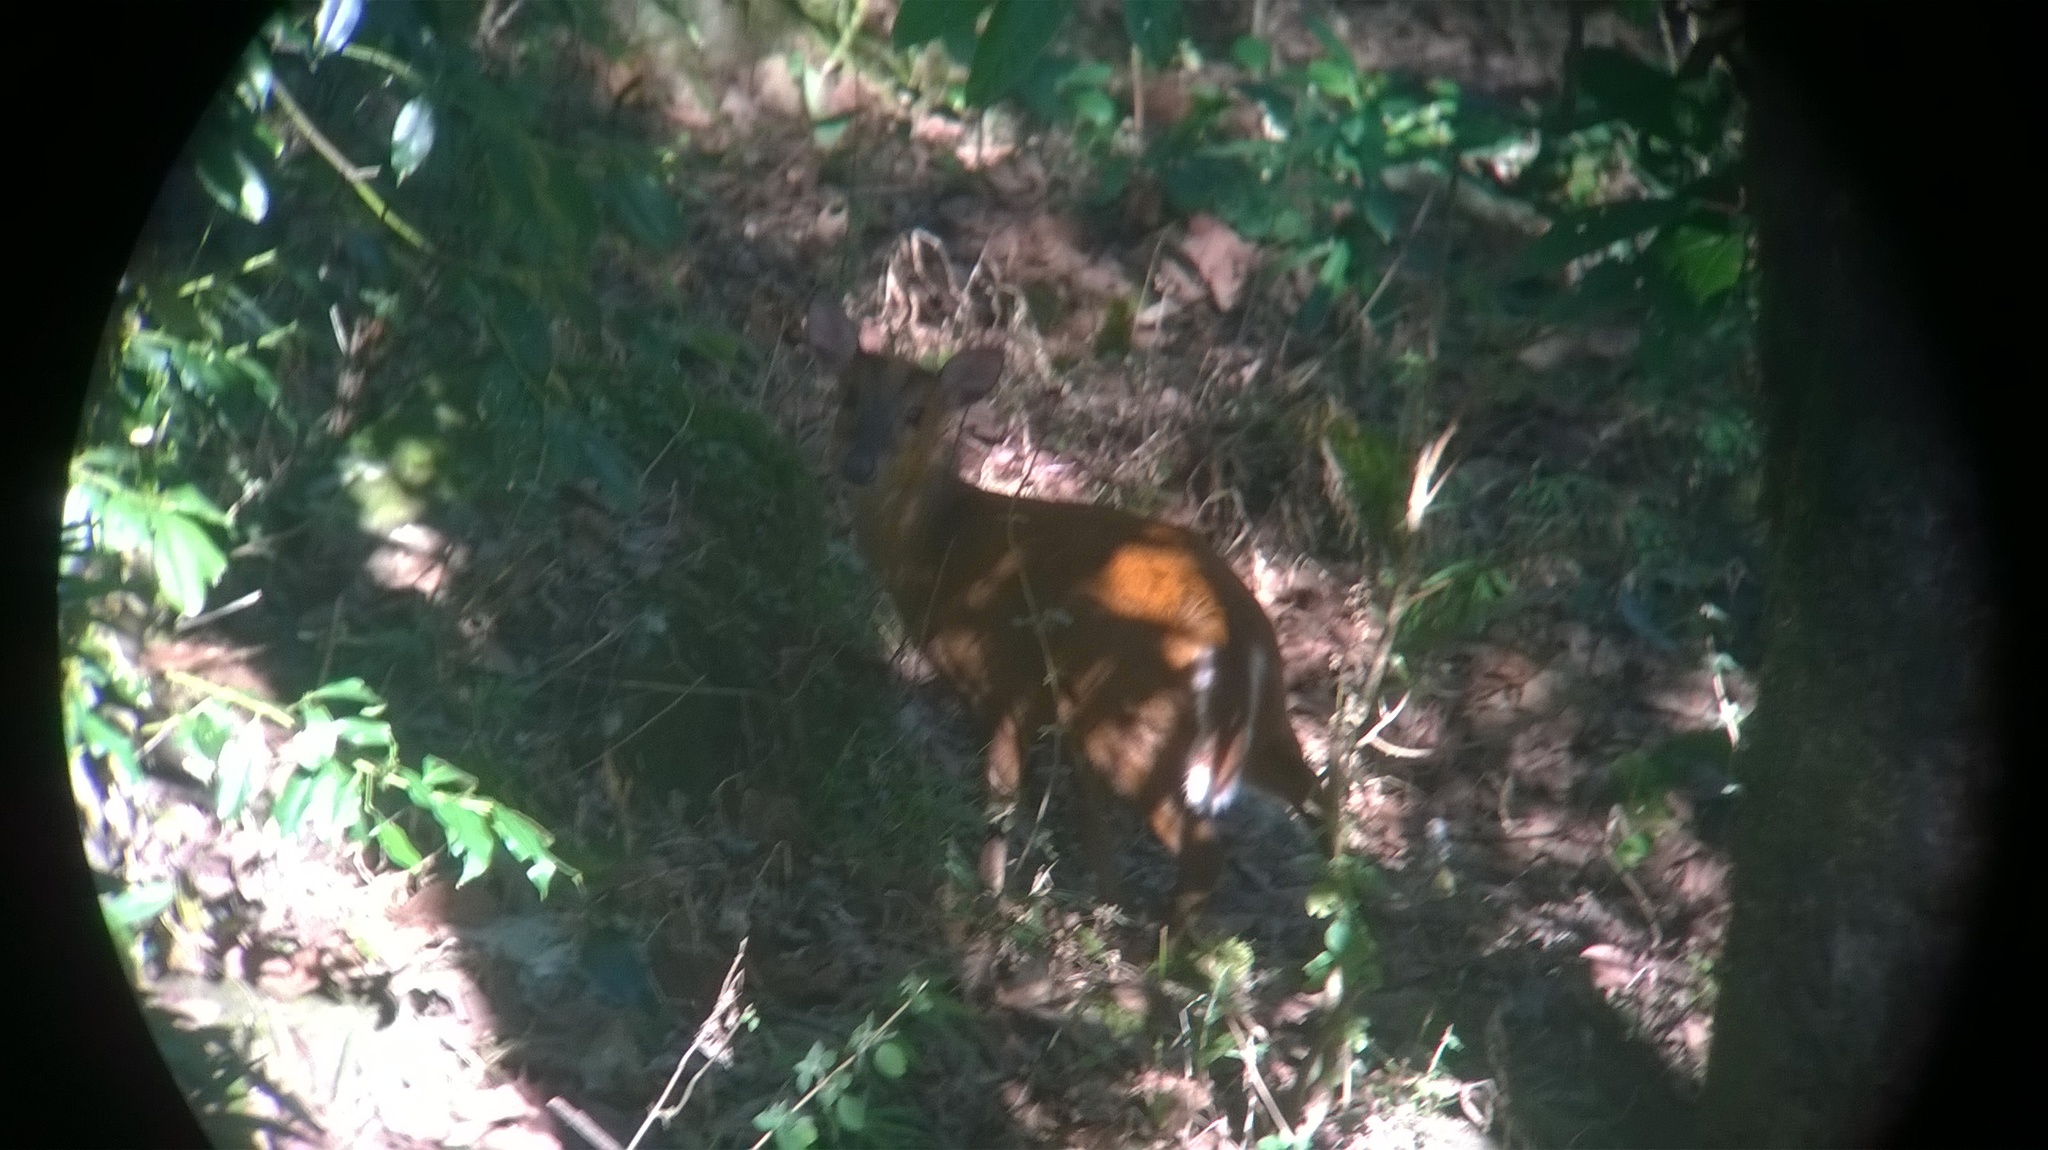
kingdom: Animalia
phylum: Chordata
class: Mammalia
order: Artiodactyla
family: Cervidae
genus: Muntiacus
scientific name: Muntiacus muntjak
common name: Indian muntjac
